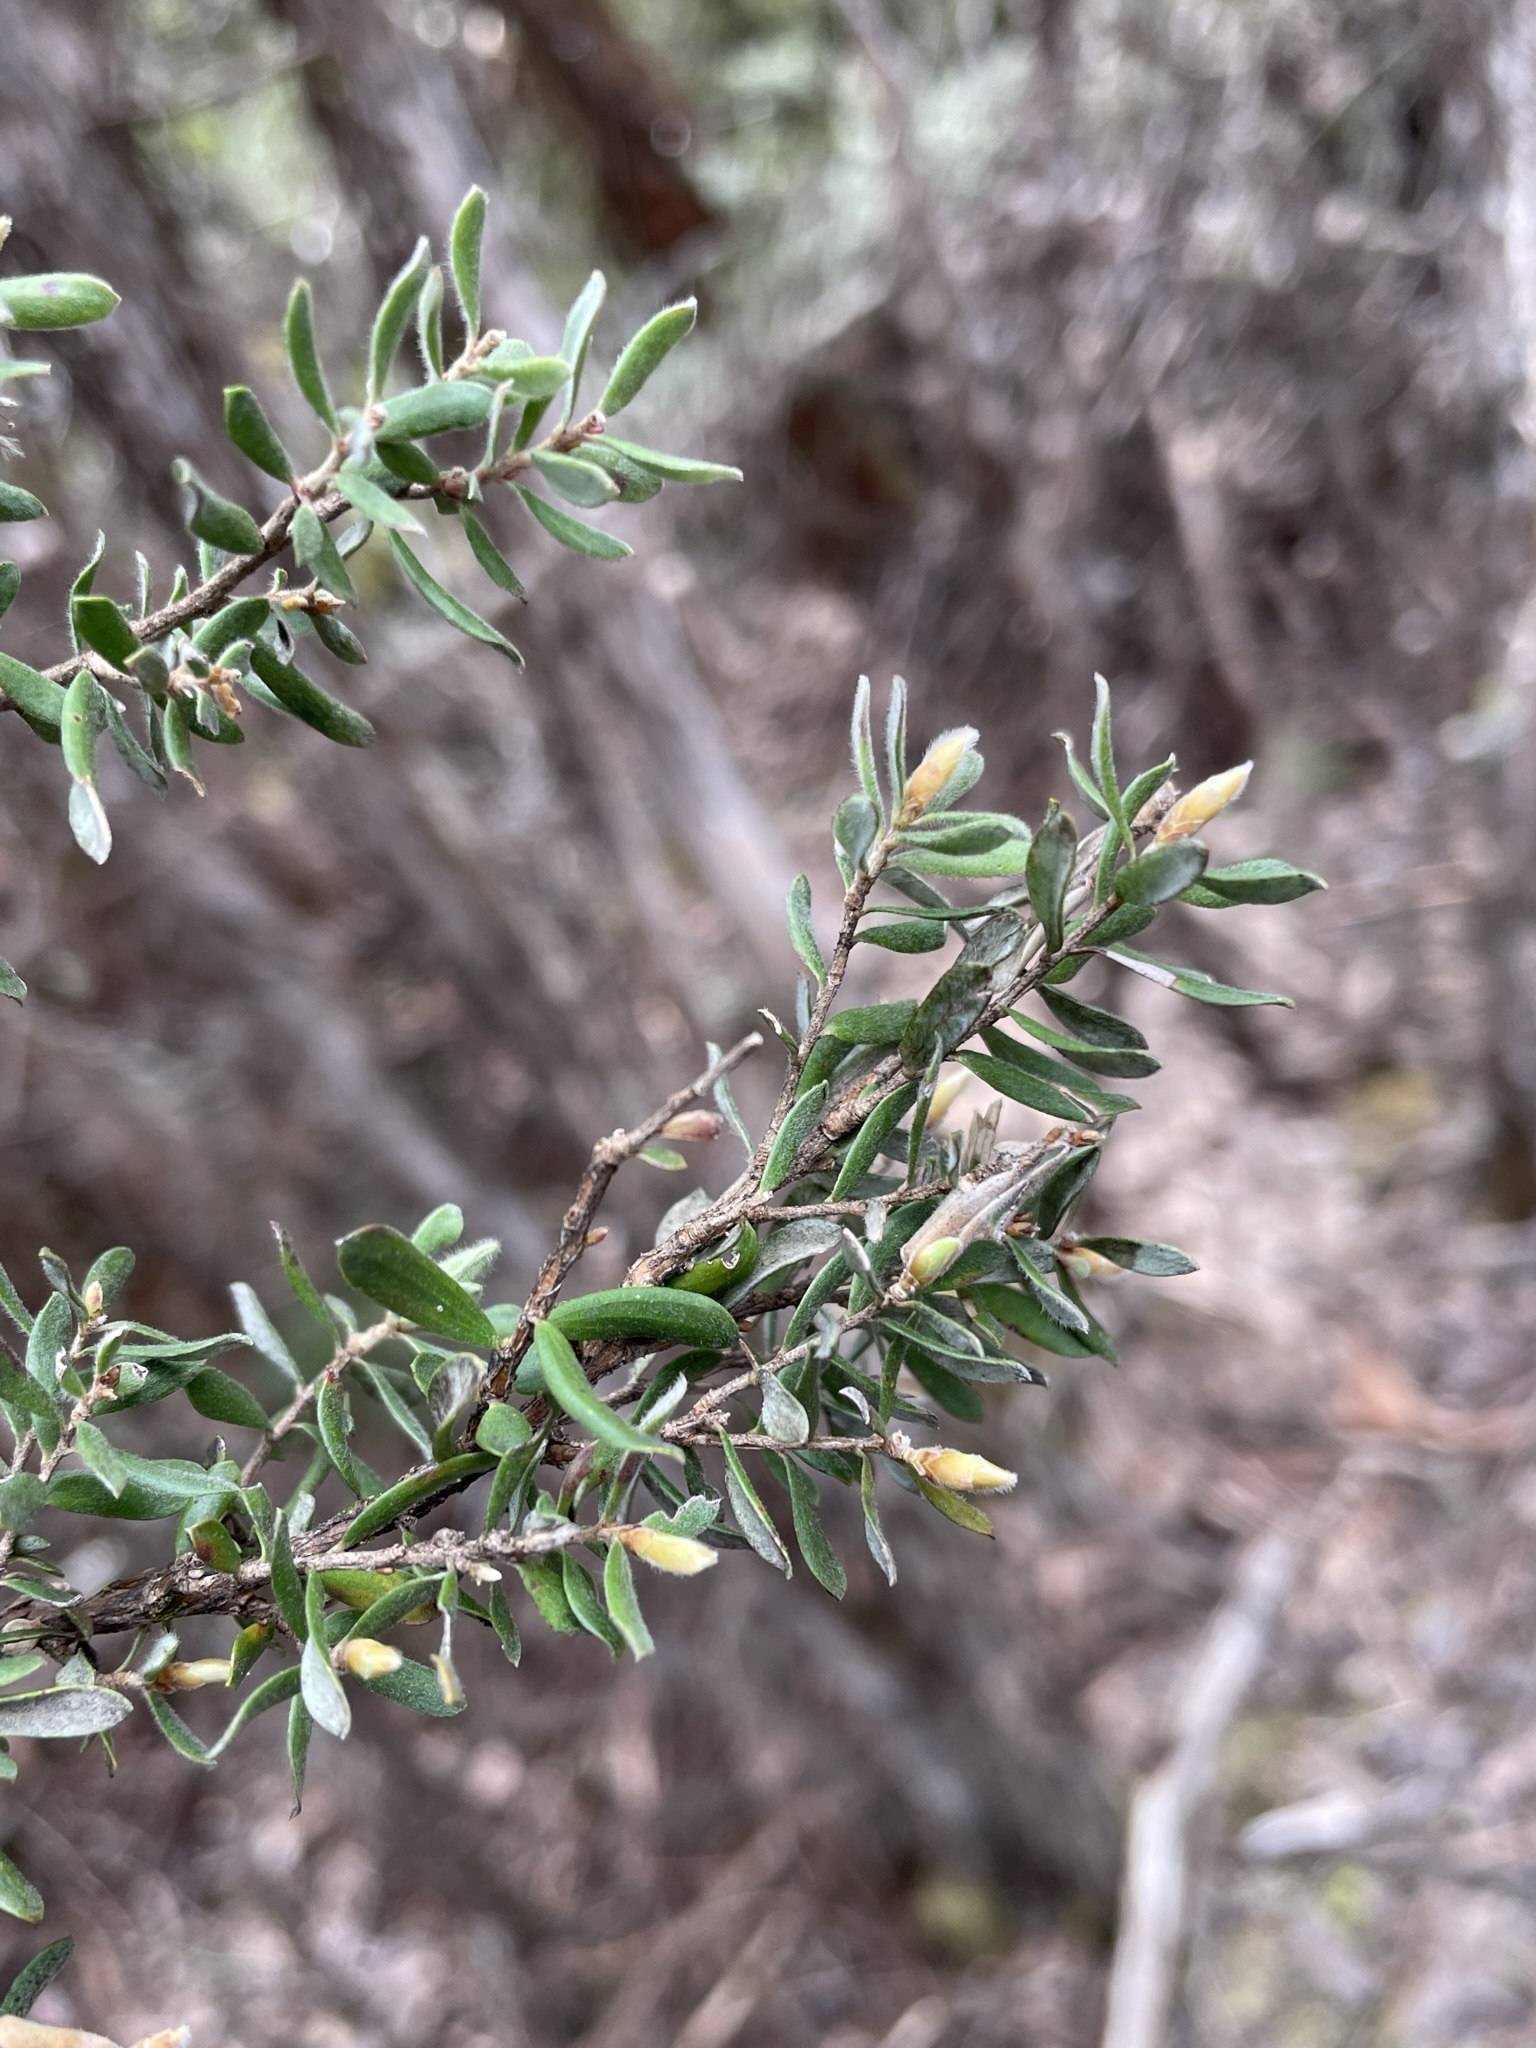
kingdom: Plantae
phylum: Tracheophyta
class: Magnoliopsida
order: Myrtales
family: Myrtaceae
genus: Leptospermum
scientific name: Leptospermum lanigerum
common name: Woolly tea-tree
